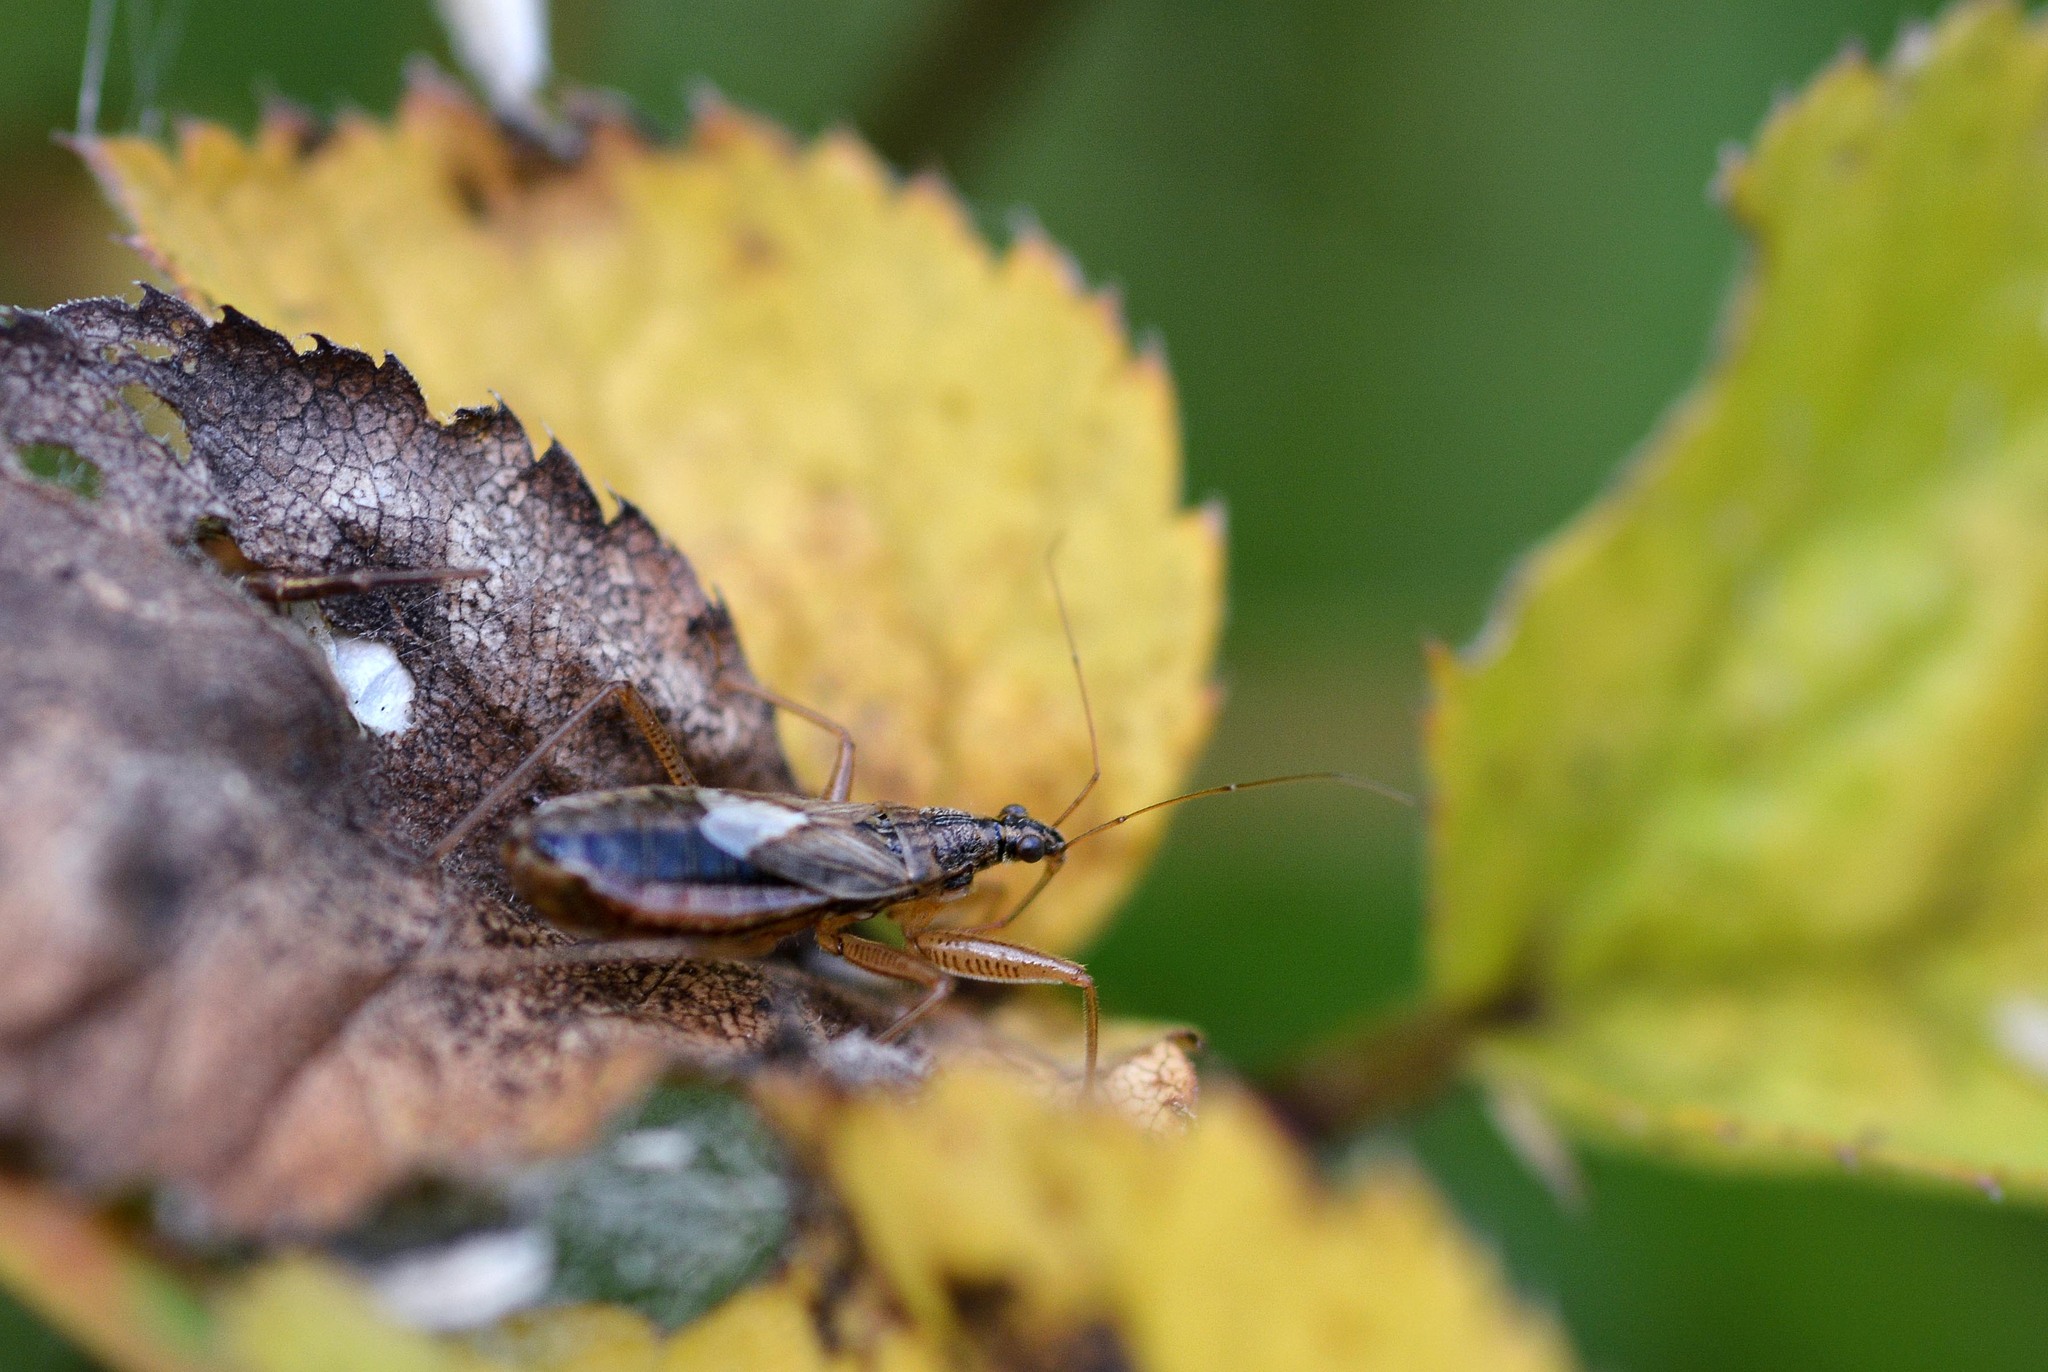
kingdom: Animalia
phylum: Arthropoda
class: Insecta
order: Hemiptera
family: Nabidae
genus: Nabis
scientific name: Nabis flavomarginatus
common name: Broad damselbug
